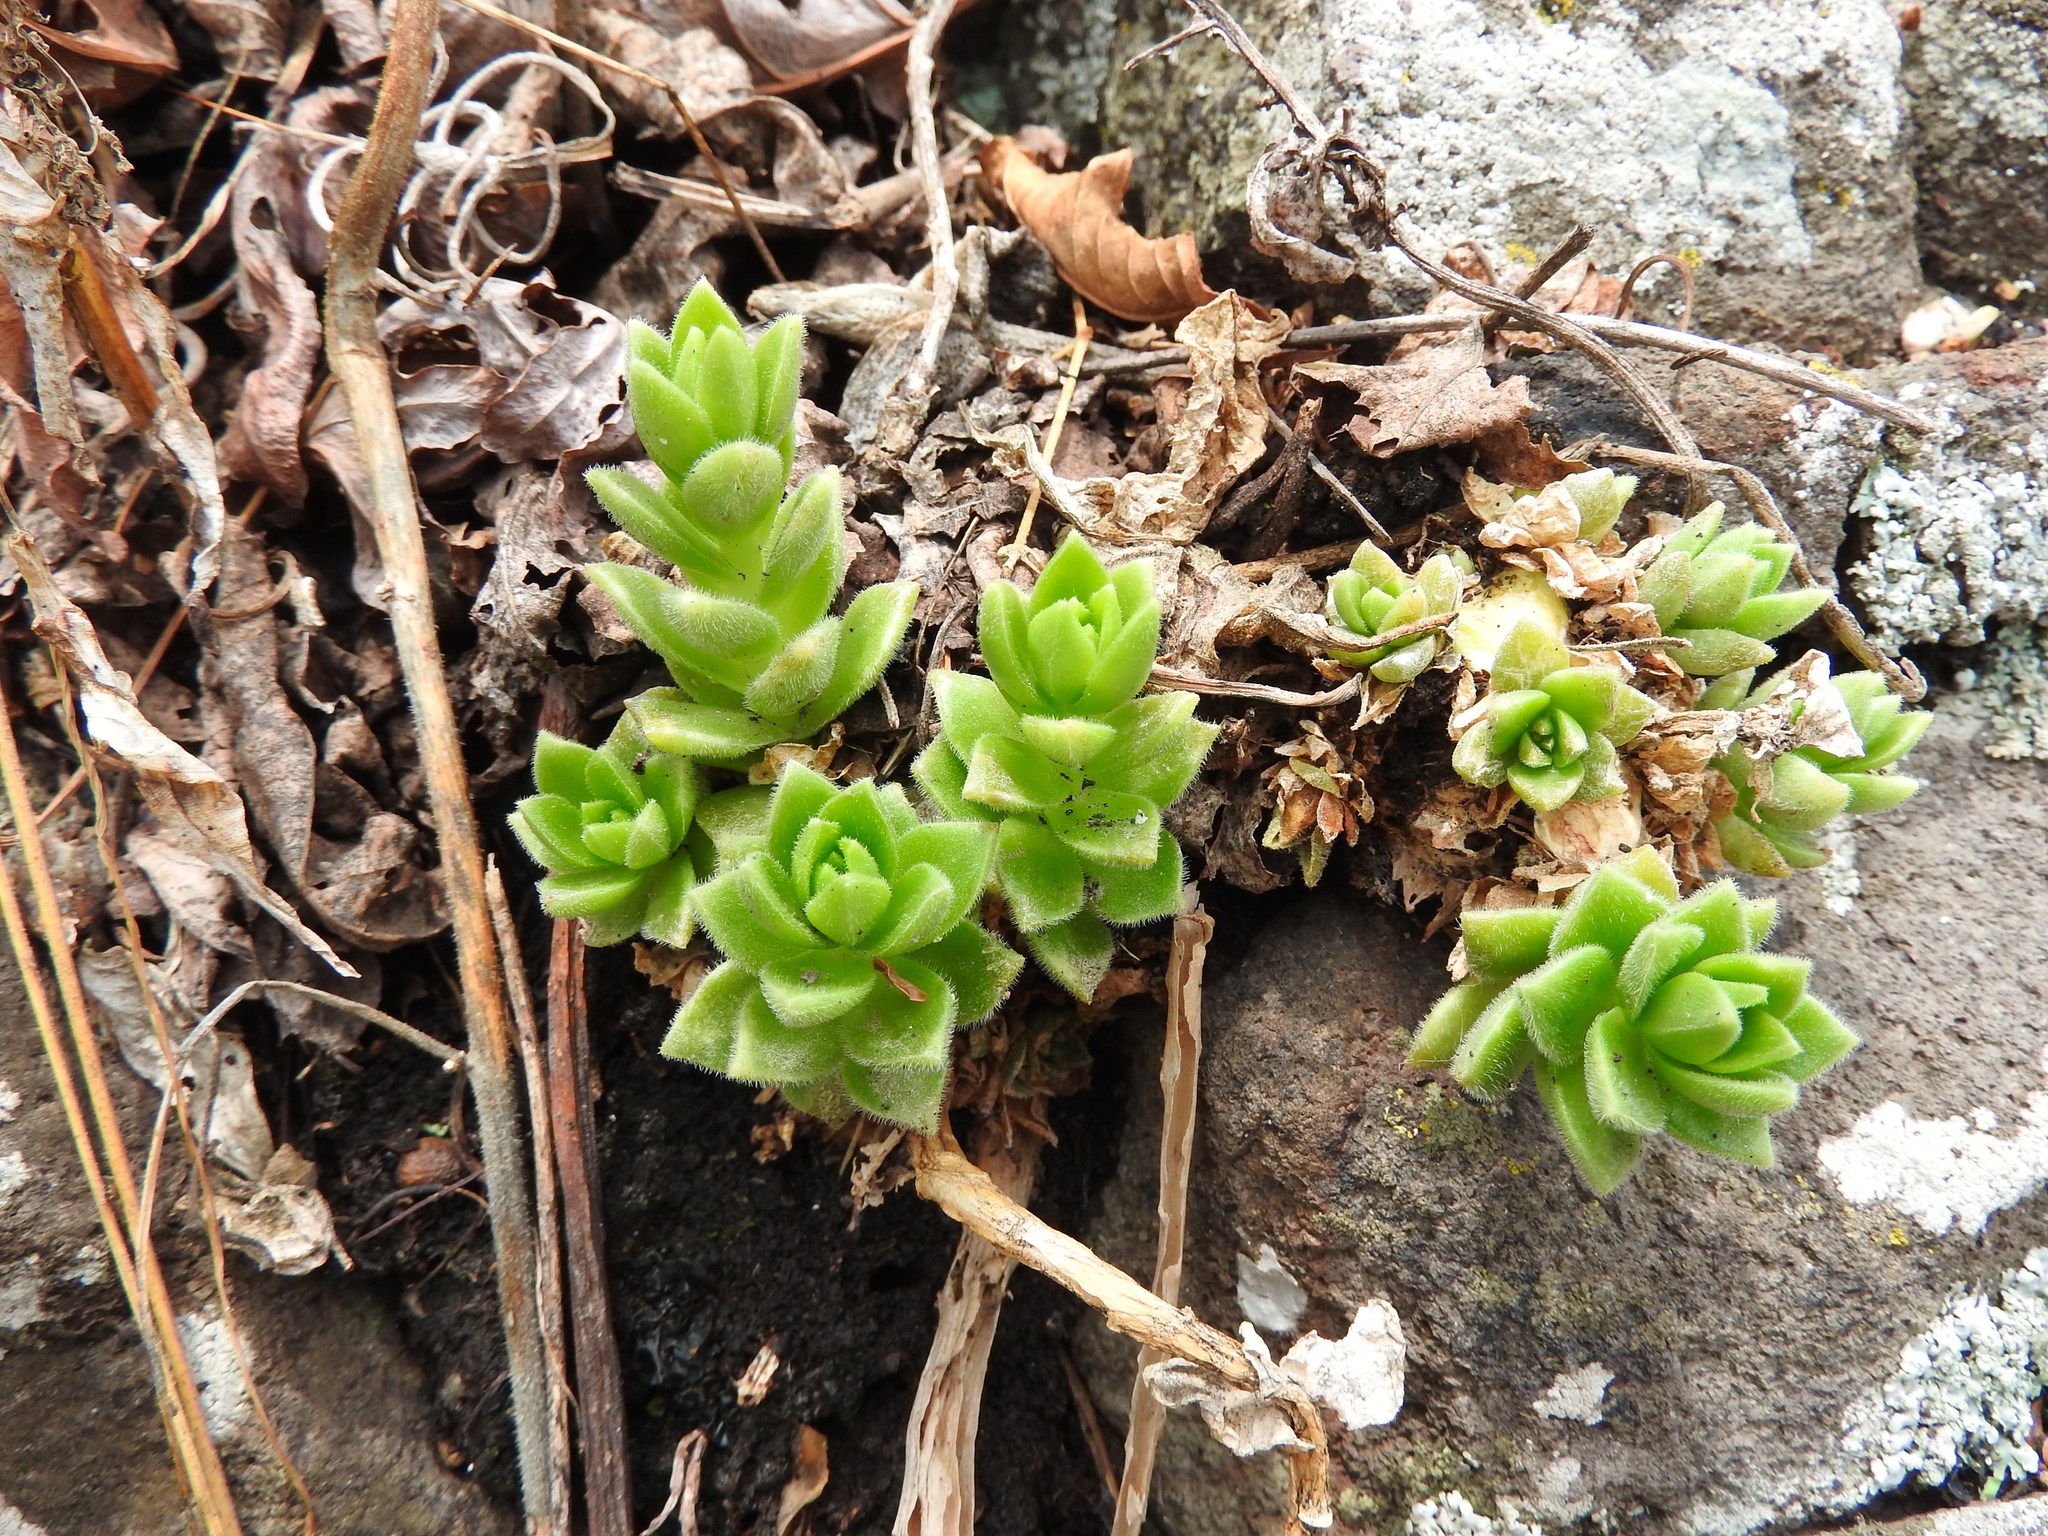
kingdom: Plantae
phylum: Tracheophyta
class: Magnoliopsida
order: Saxifragales
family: Crassulaceae
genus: Sedum
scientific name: Sedum ebracteatum
